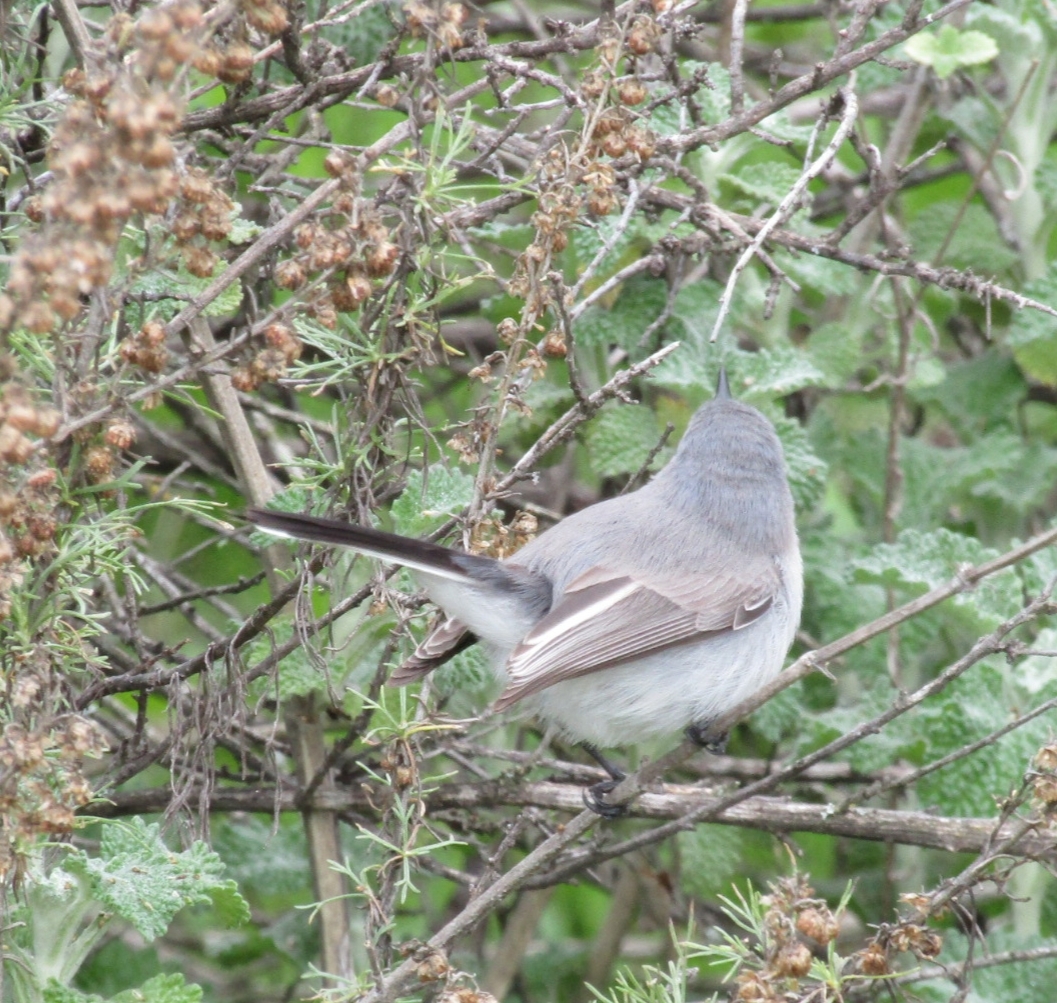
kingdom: Animalia
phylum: Chordata
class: Aves
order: Passeriformes
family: Polioptilidae
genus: Polioptila
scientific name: Polioptila caerulea
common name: Blue-gray gnatcatcher
